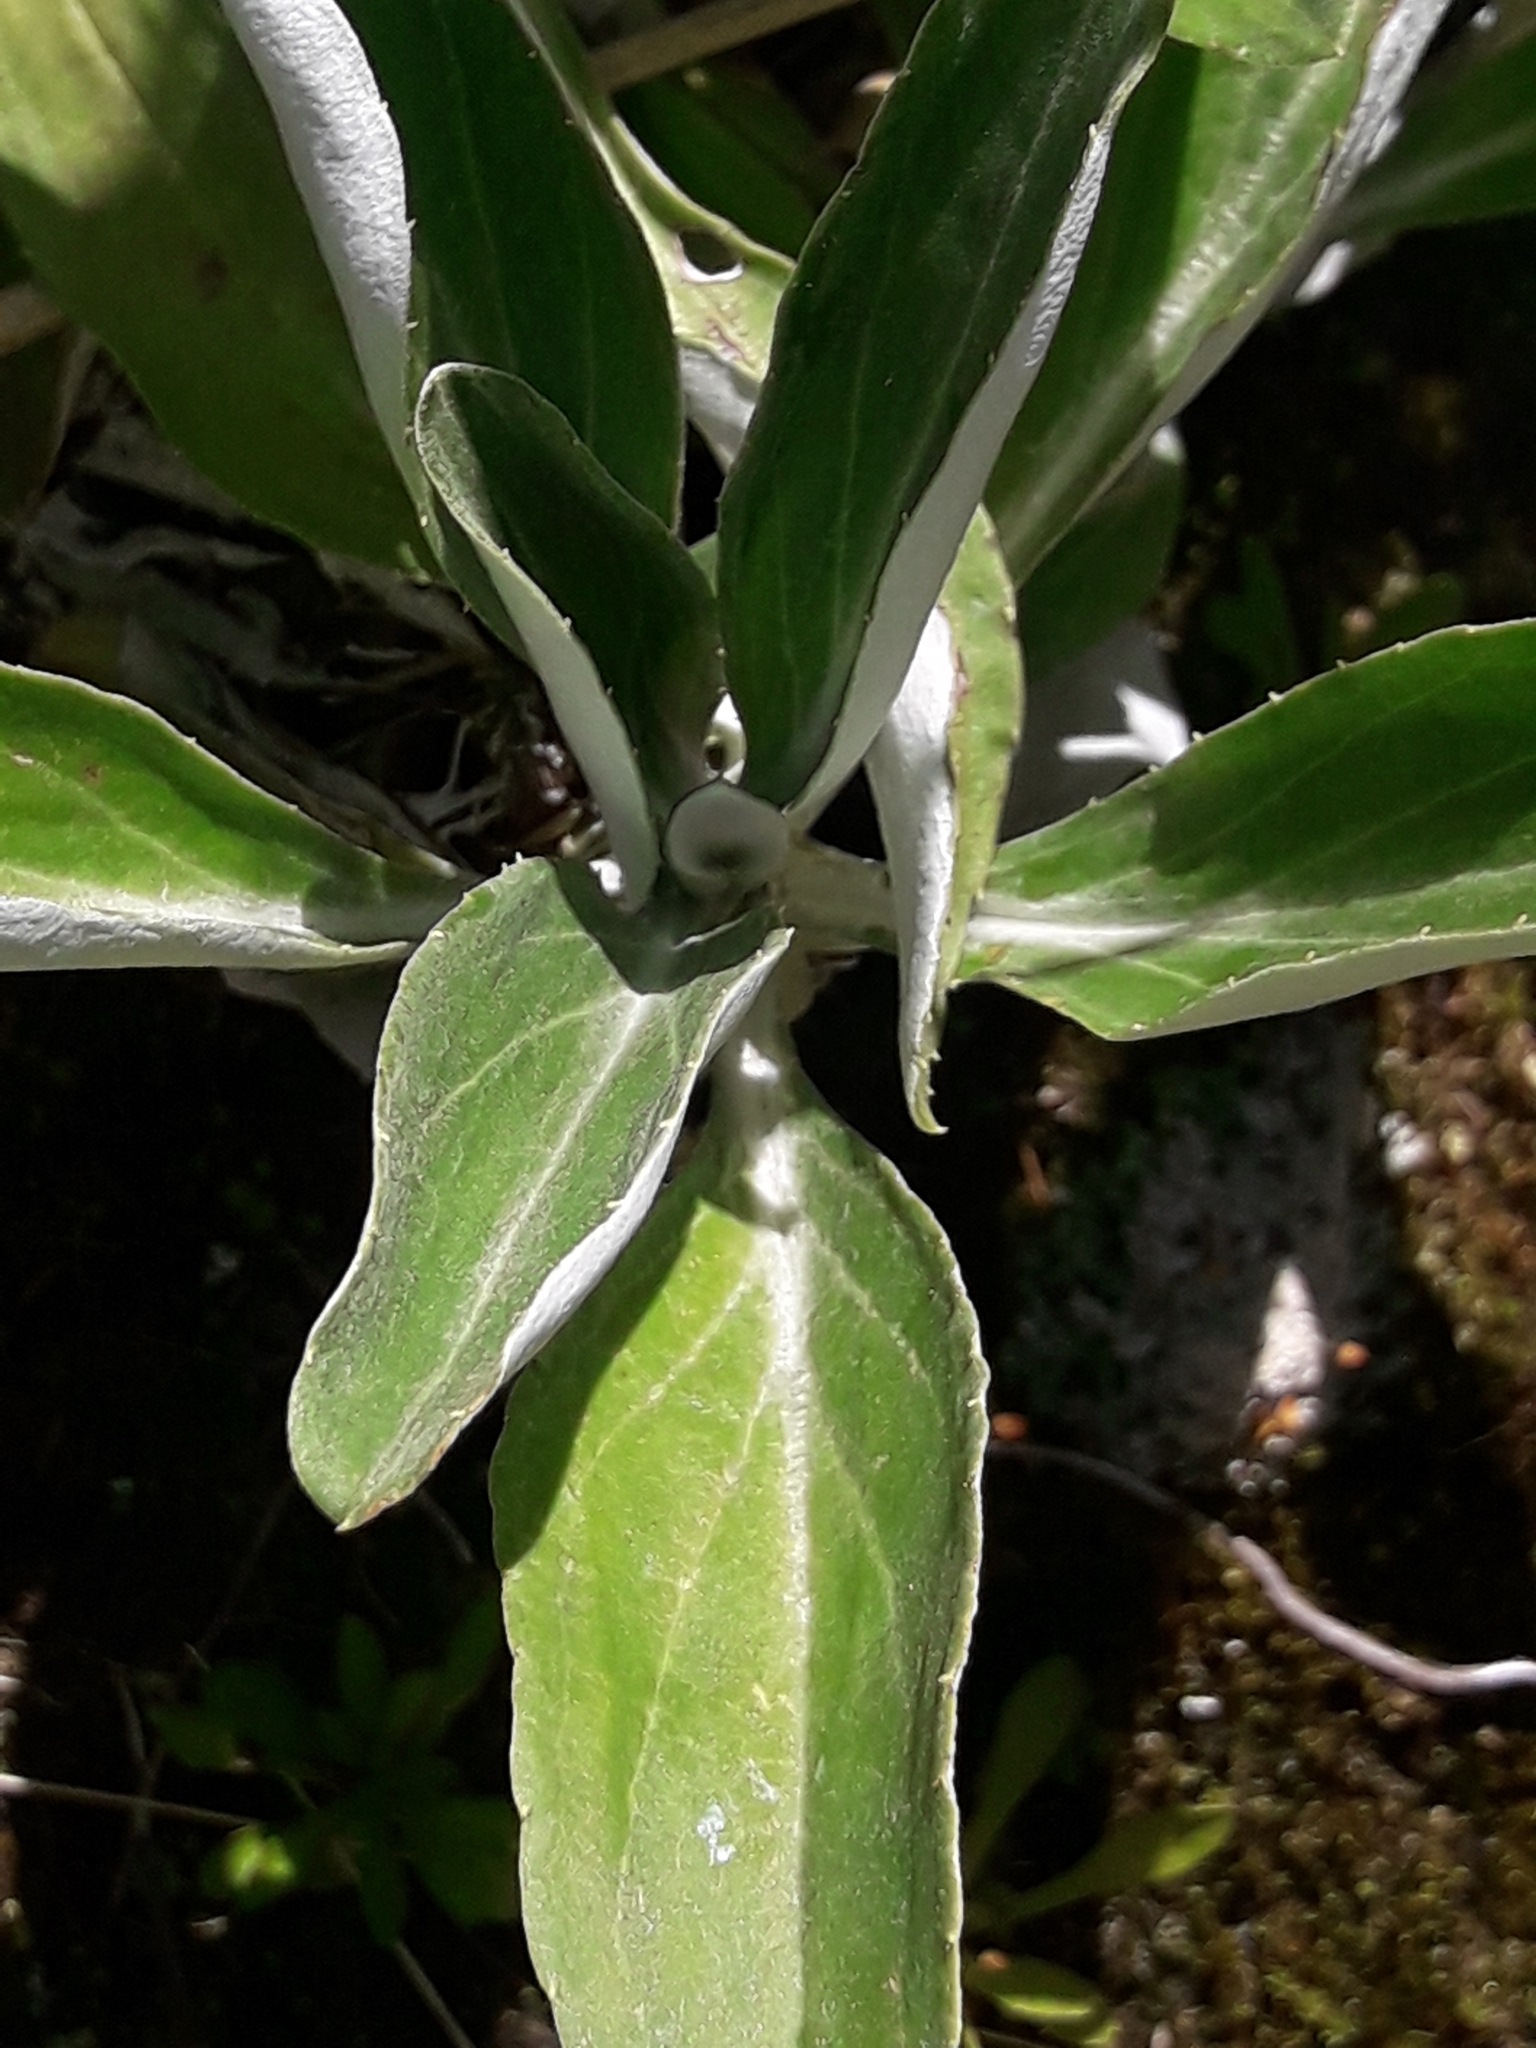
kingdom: Plantae
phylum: Tracheophyta
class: Magnoliopsida
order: Asterales
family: Asteraceae
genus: Celmisia
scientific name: Celmisia holosericea
